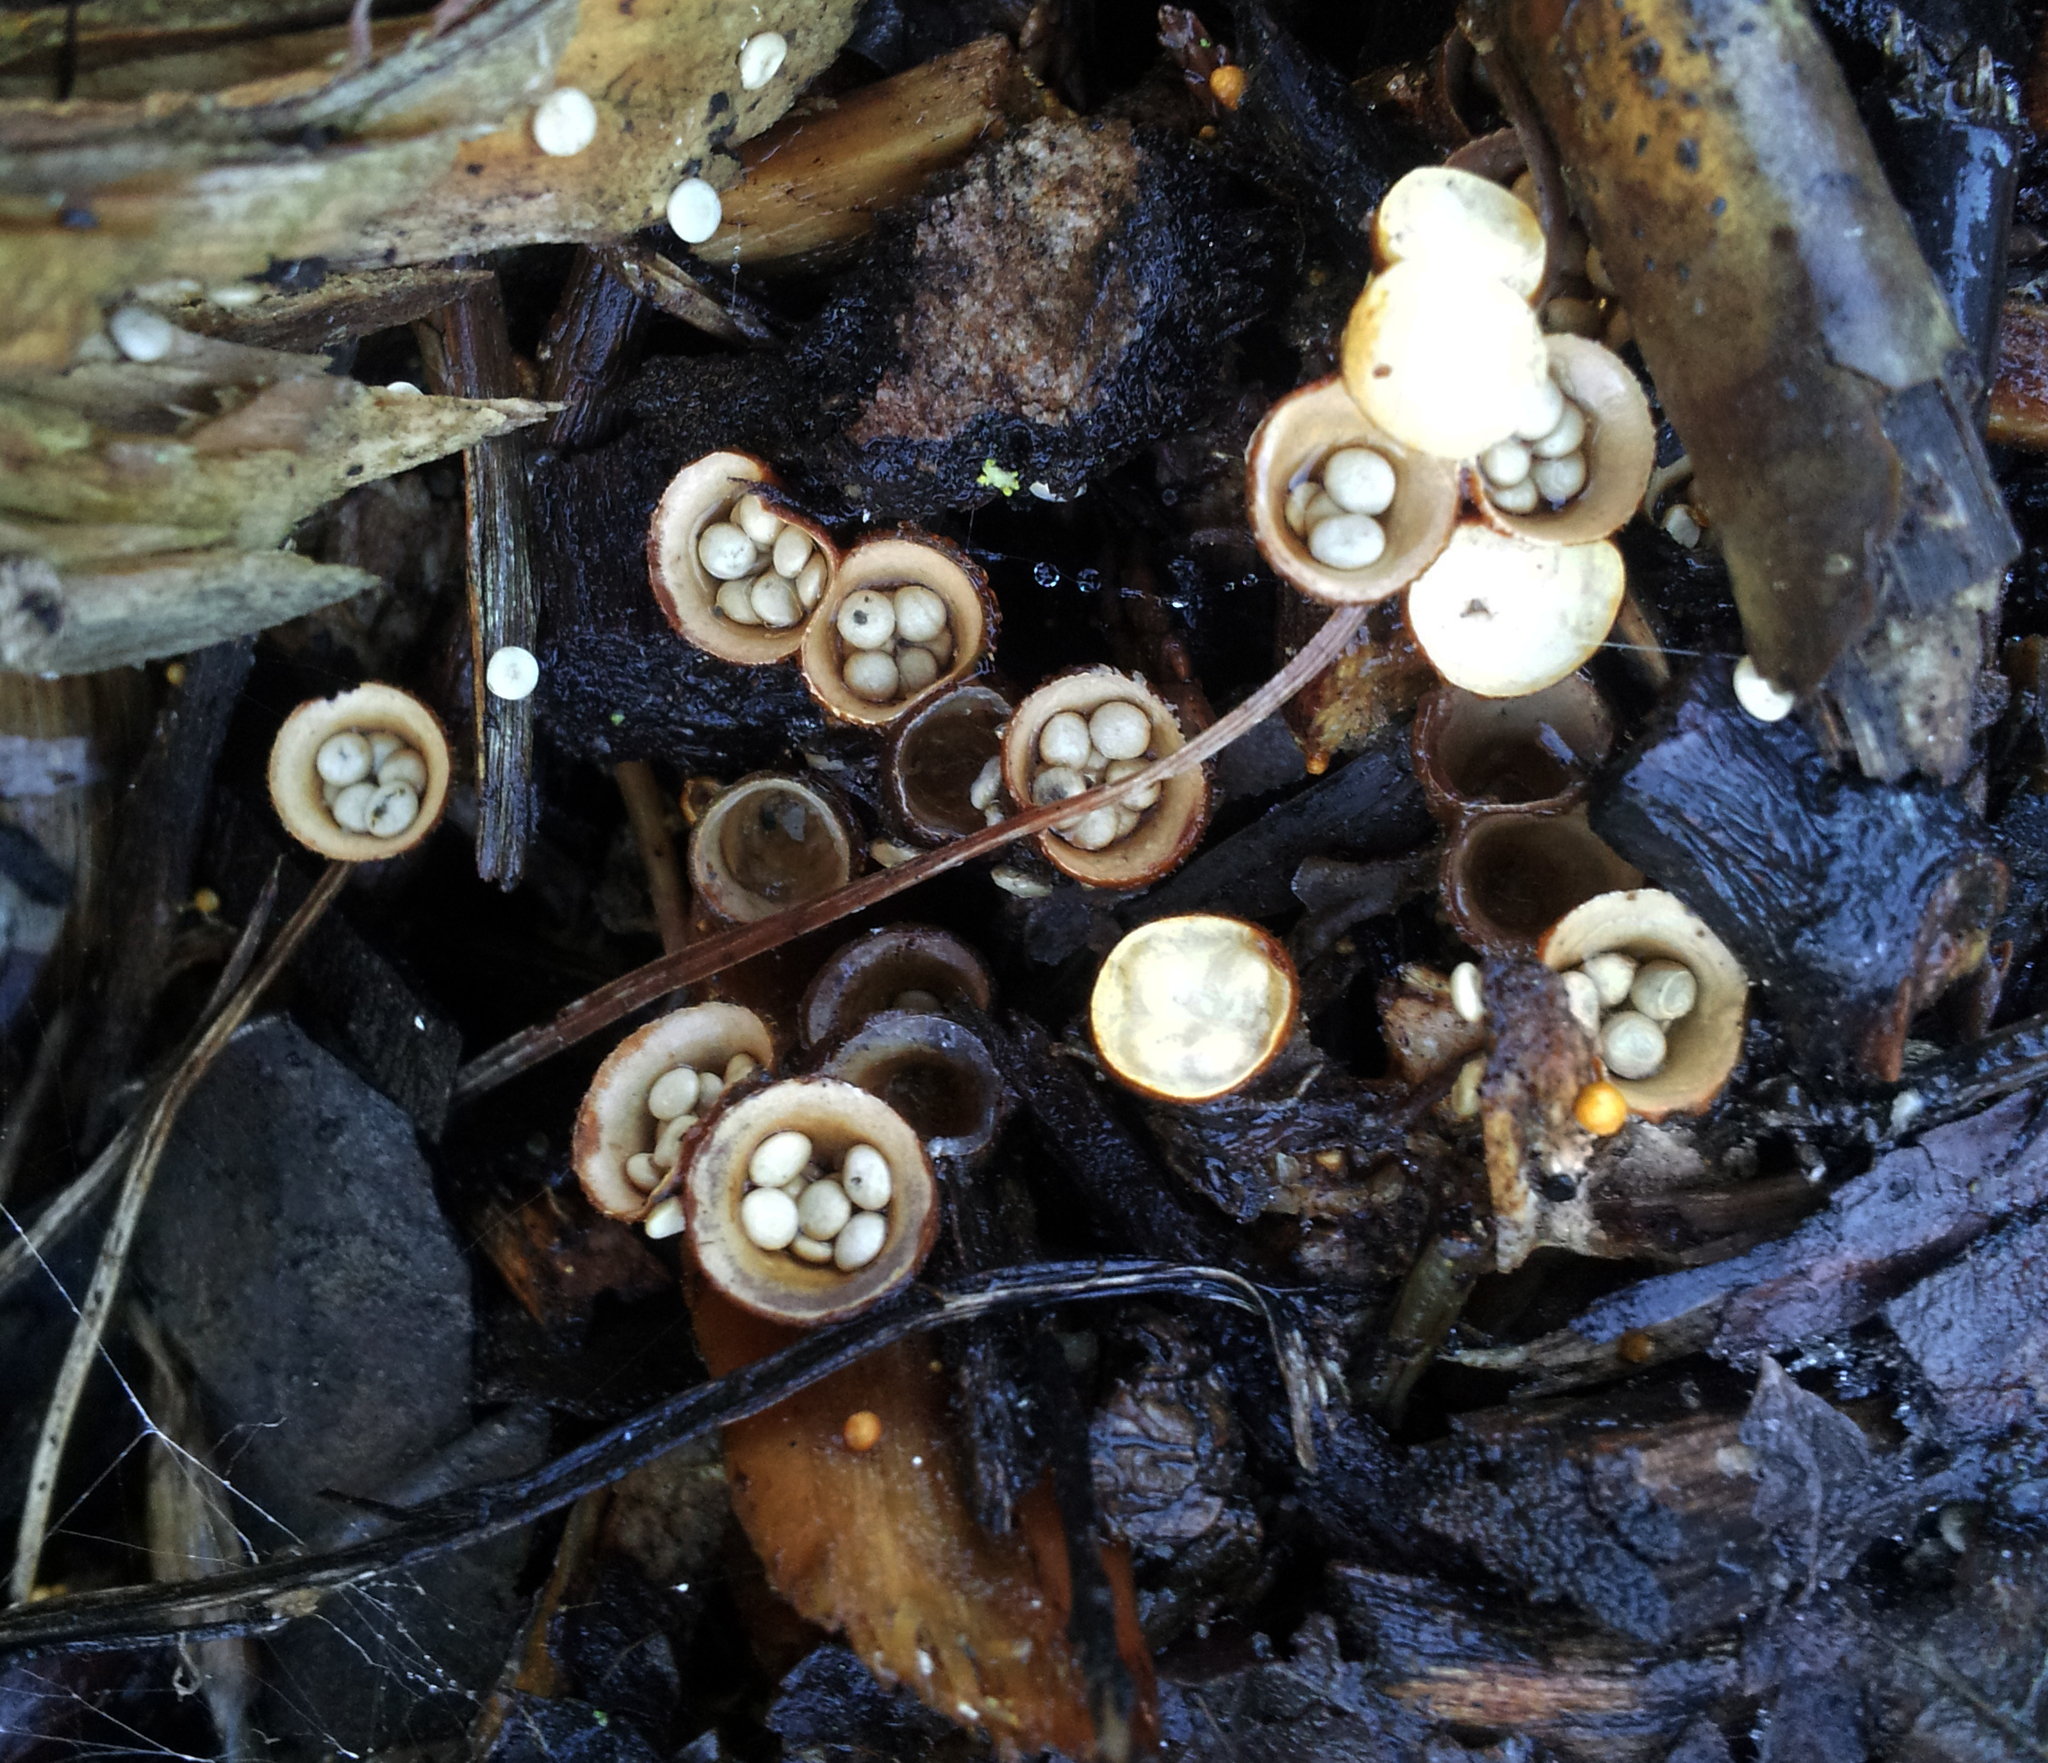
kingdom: Fungi
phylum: Basidiomycota
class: Agaricomycetes
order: Agaricales
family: Agaricaceae
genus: Cyathus
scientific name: Cyathus olla
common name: Field bird's nest
